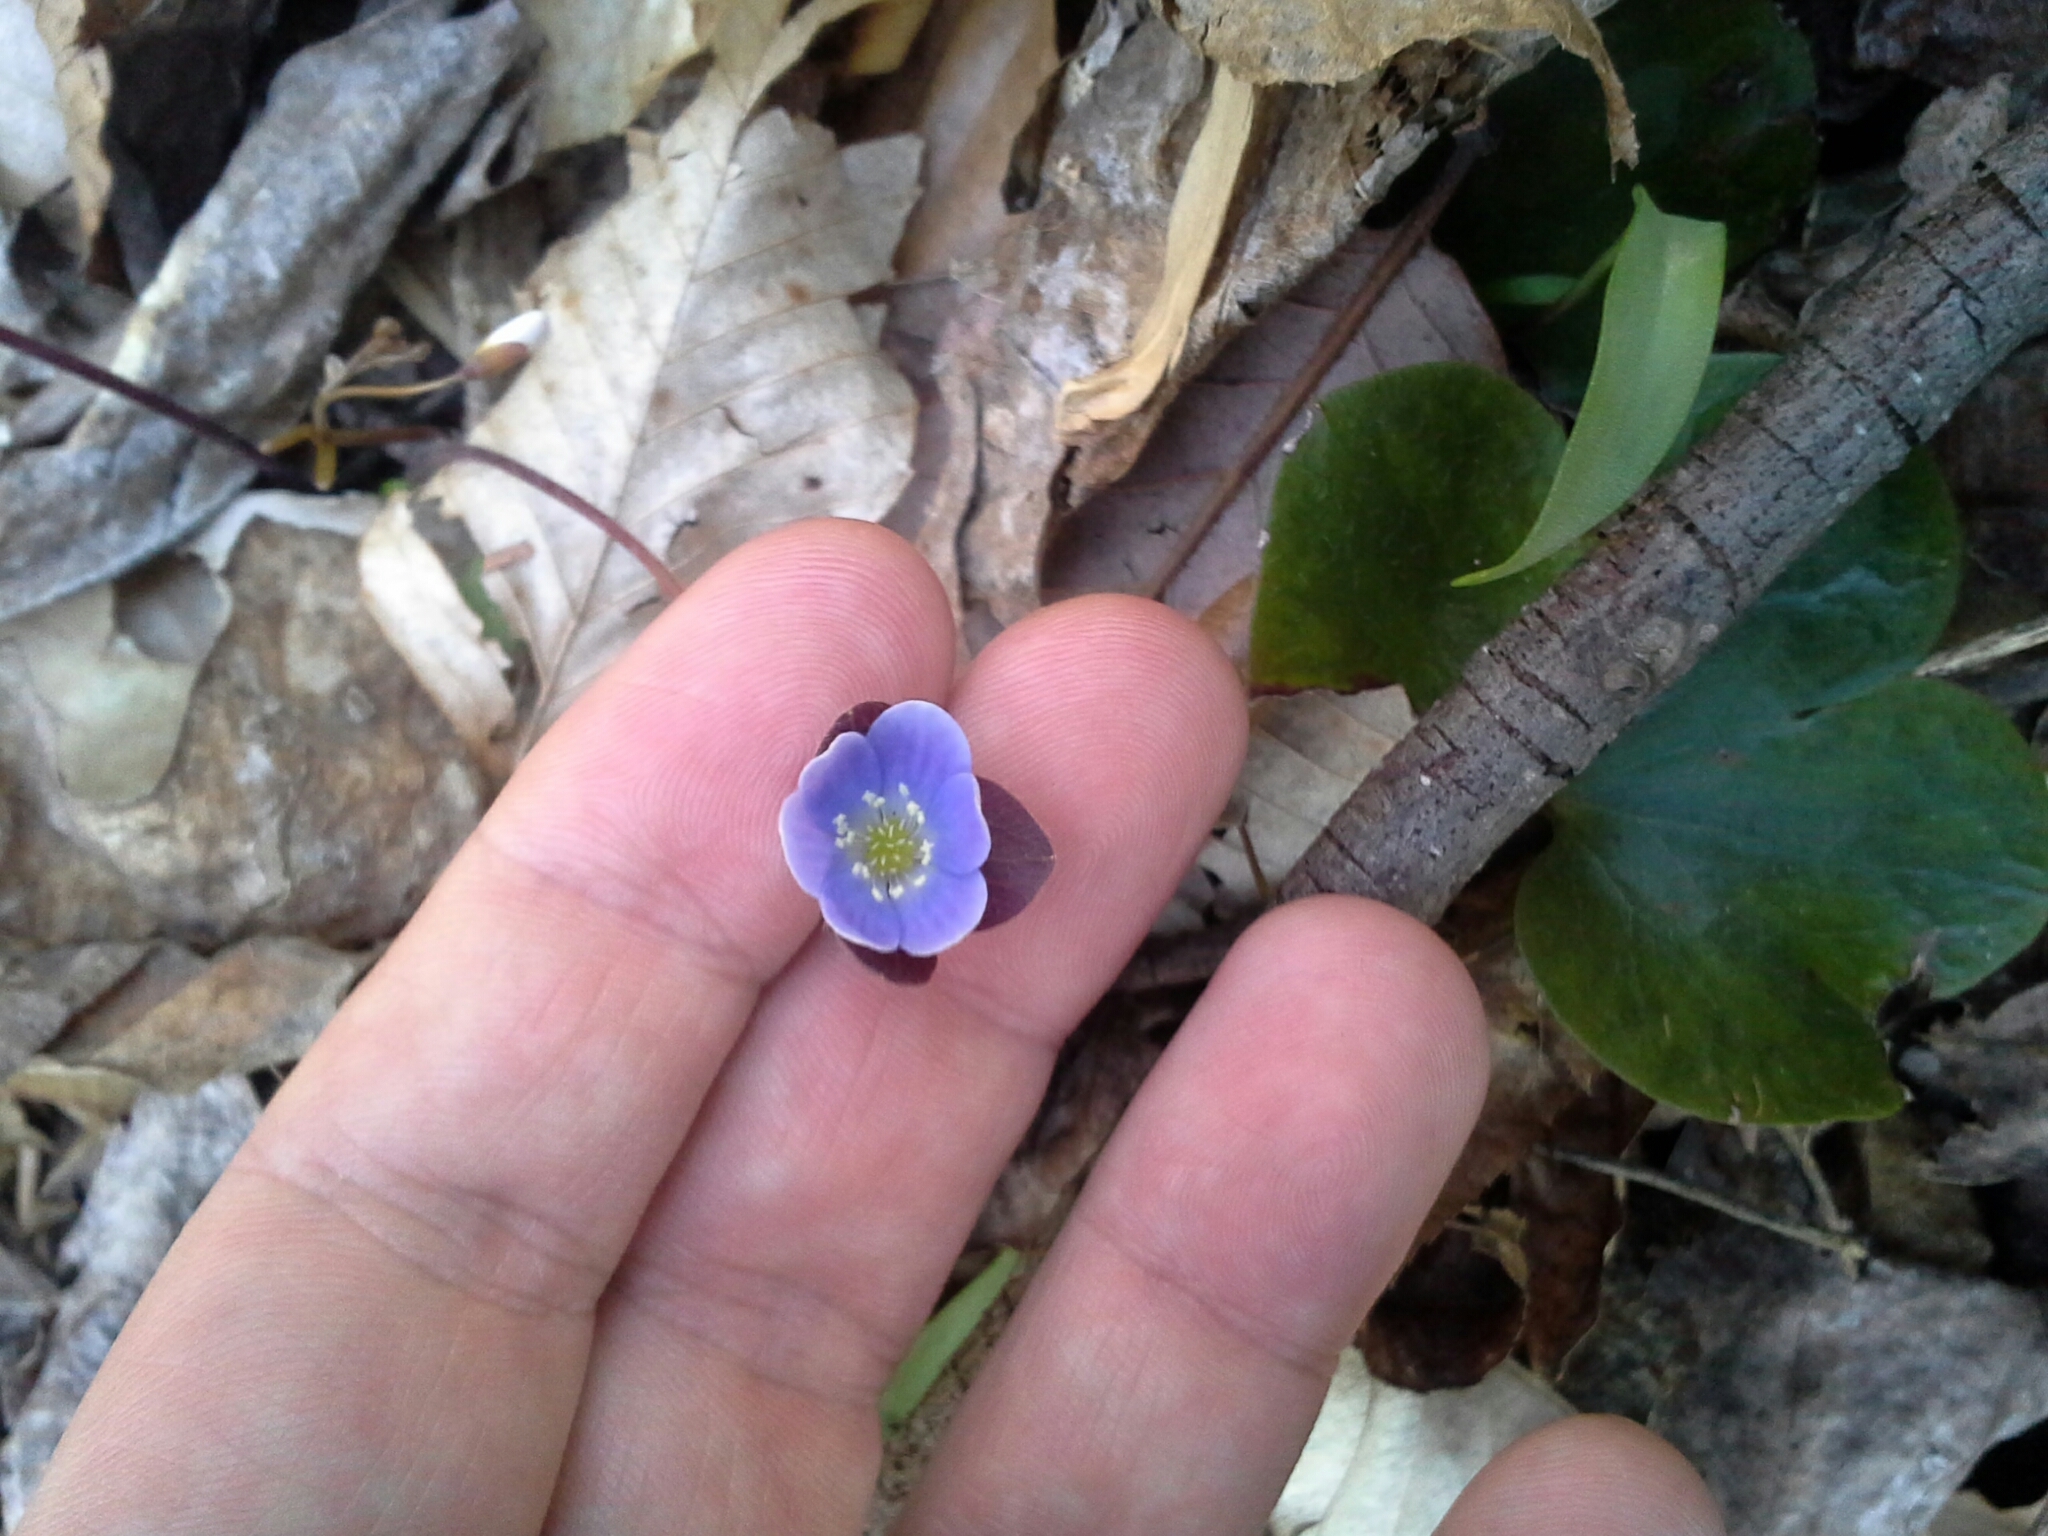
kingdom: Plantae
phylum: Tracheophyta
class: Magnoliopsida
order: Ranunculales
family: Ranunculaceae
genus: Hepatica
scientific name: Hepatica americana
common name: American hepatica
